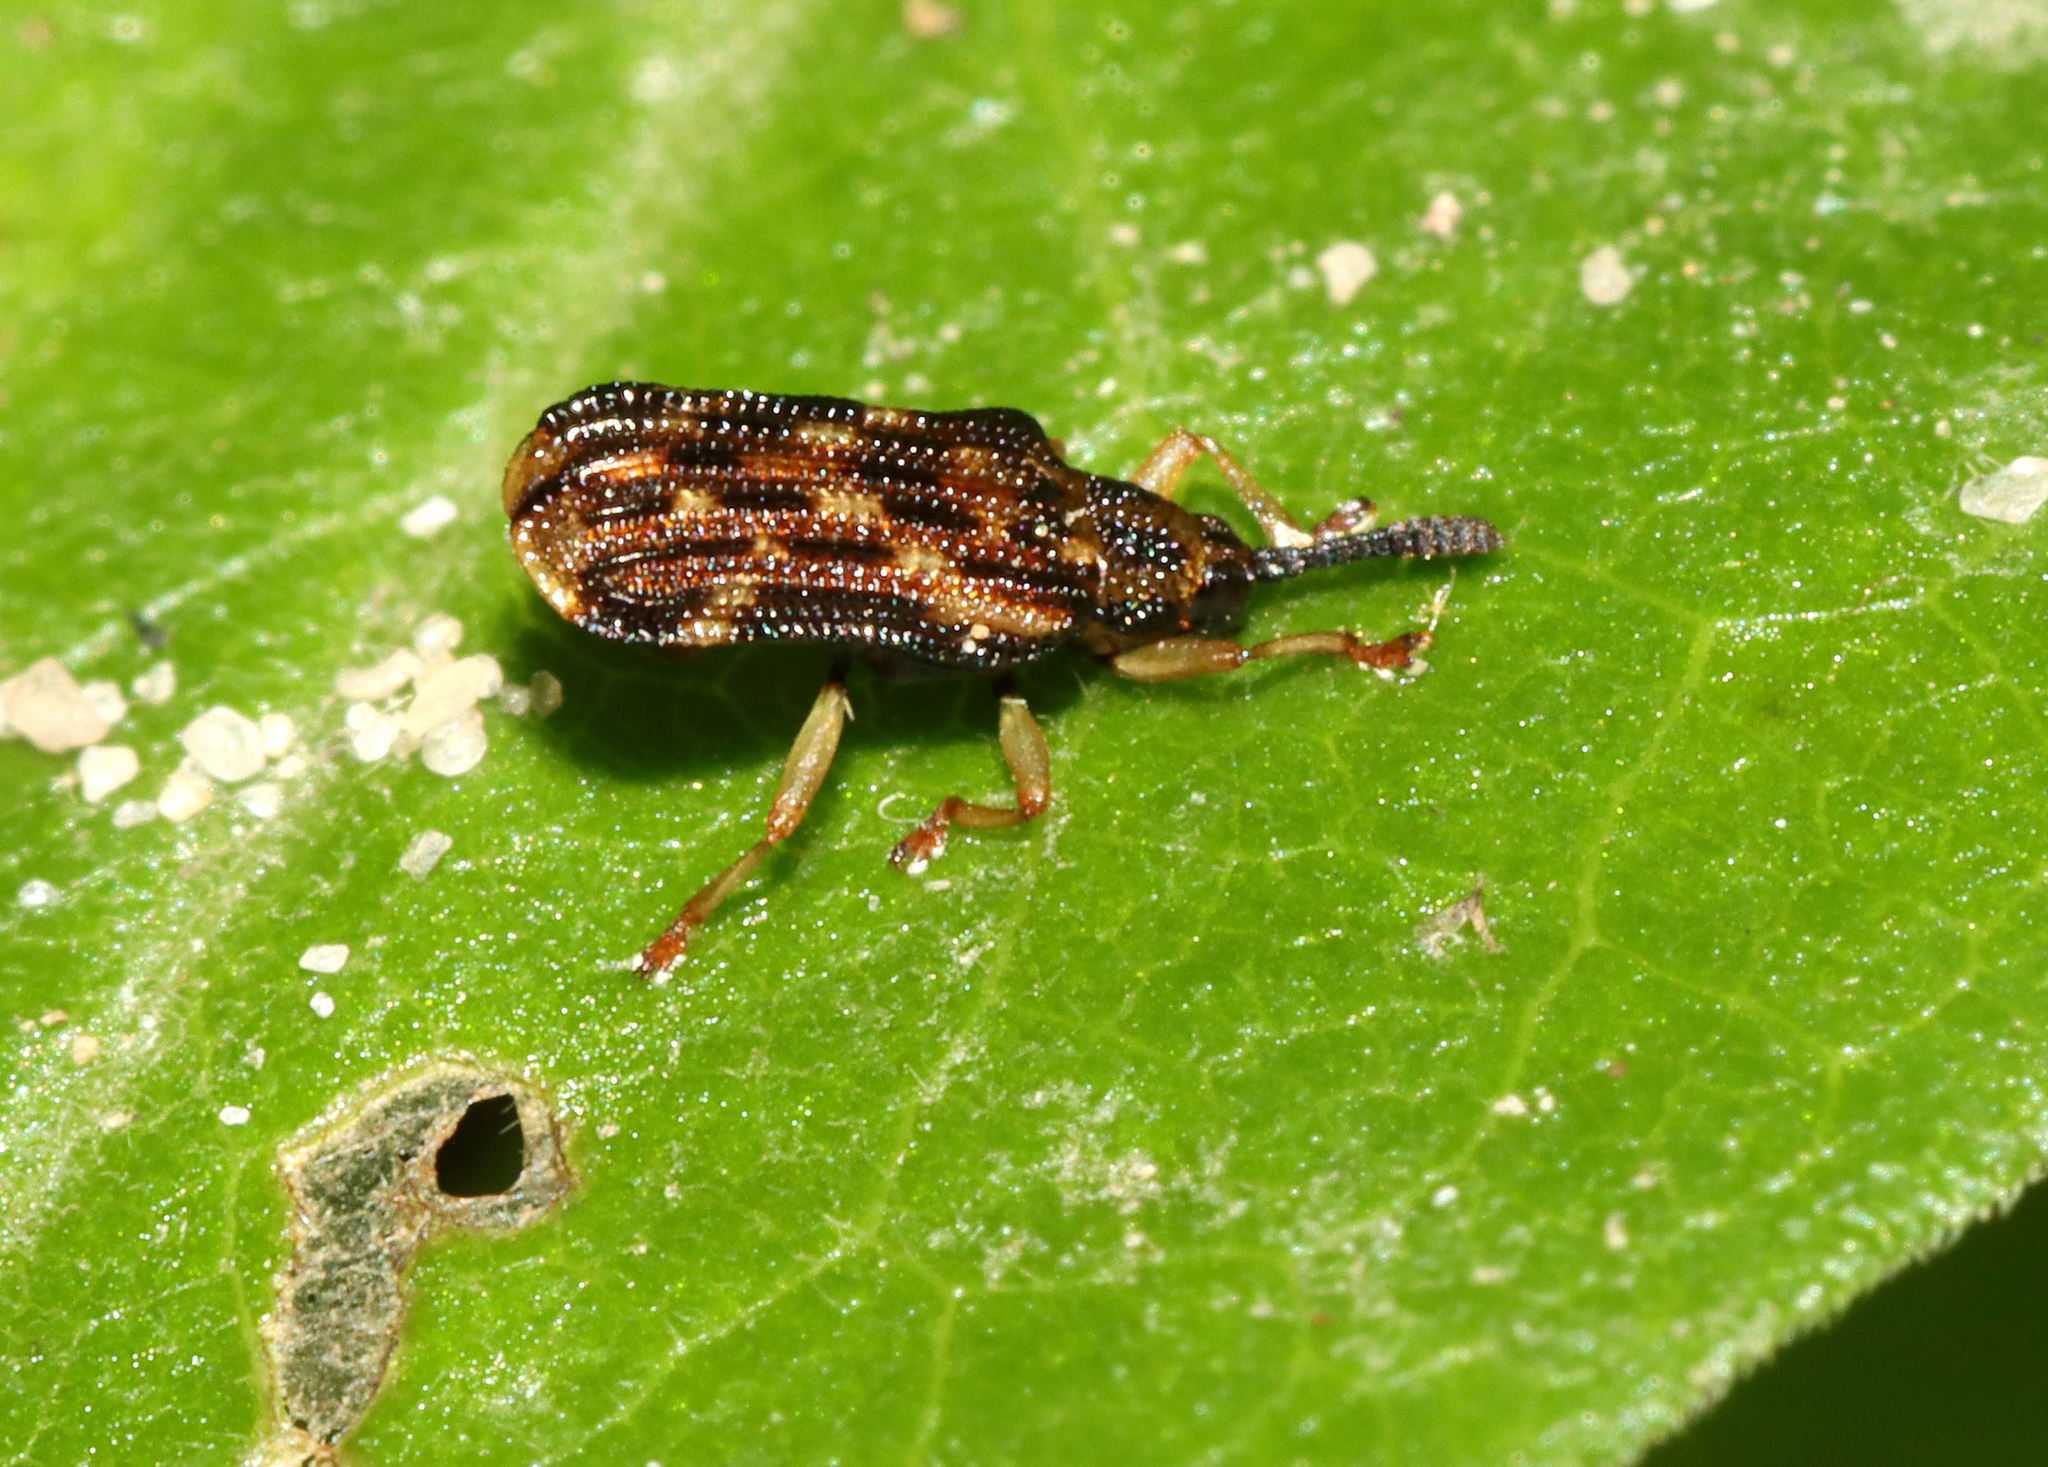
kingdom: Animalia
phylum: Arthropoda
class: Insecta
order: Coleoptera
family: Chrysomelidae
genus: Sumitrosis
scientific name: Sumitrosis inaequalis
